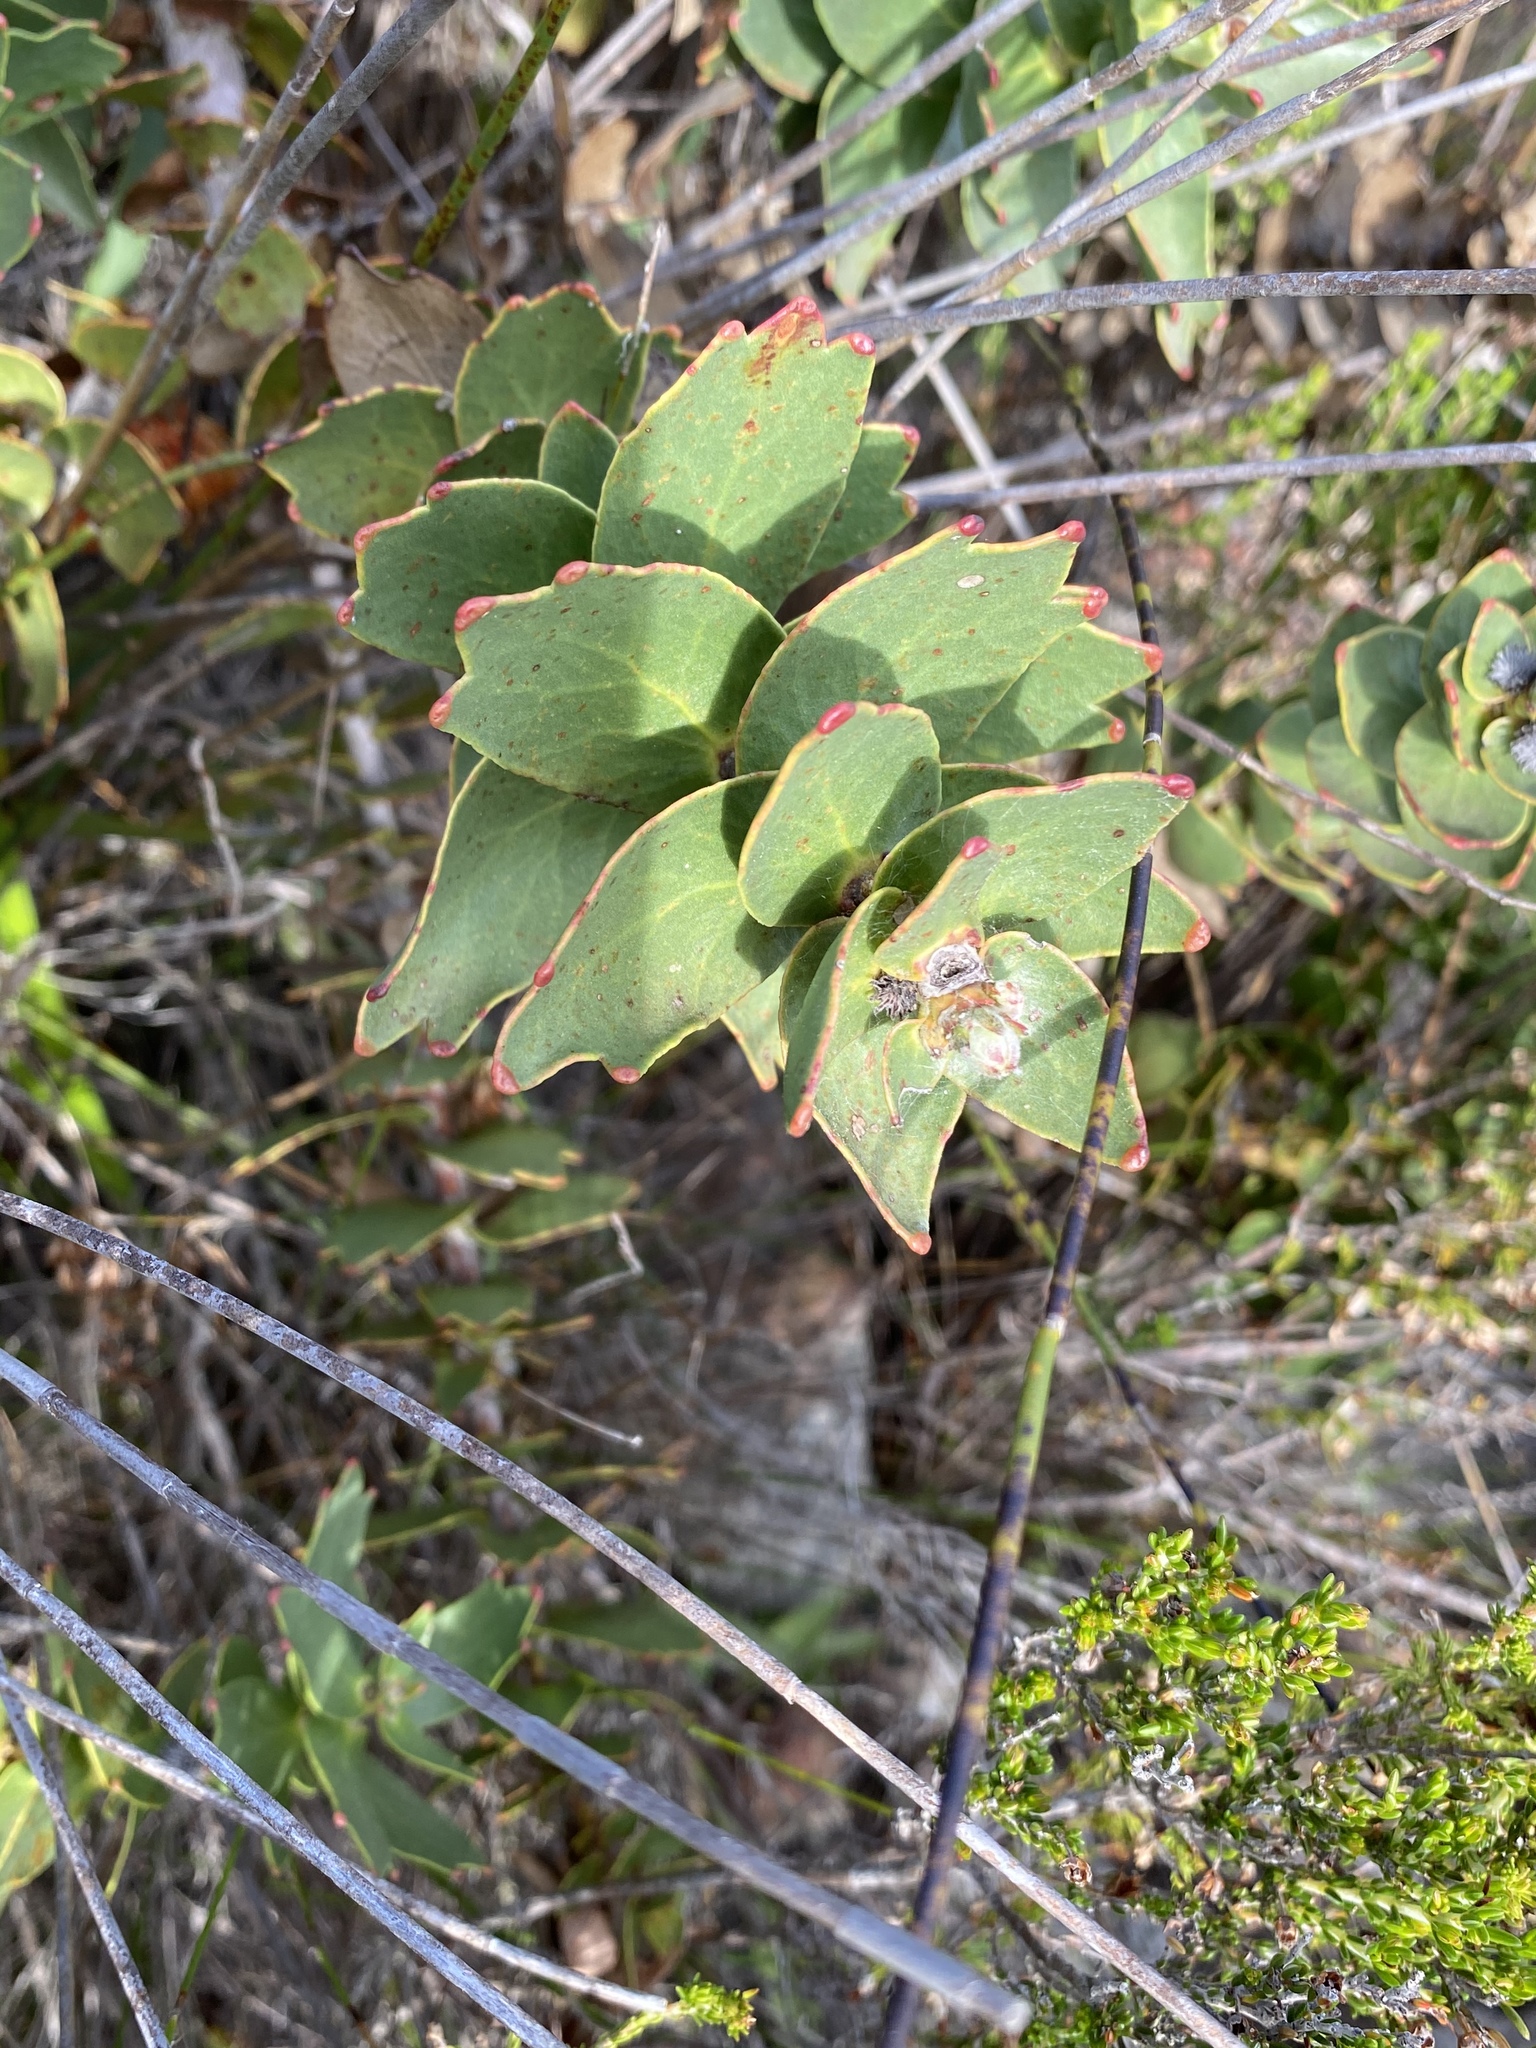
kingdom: Plantae
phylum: Tracheophyta
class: Magnoliopsida
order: Proteales
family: Proteaceae
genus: Leucospermum
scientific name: Leucospermum cordifolium
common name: Red pincushion-protea
